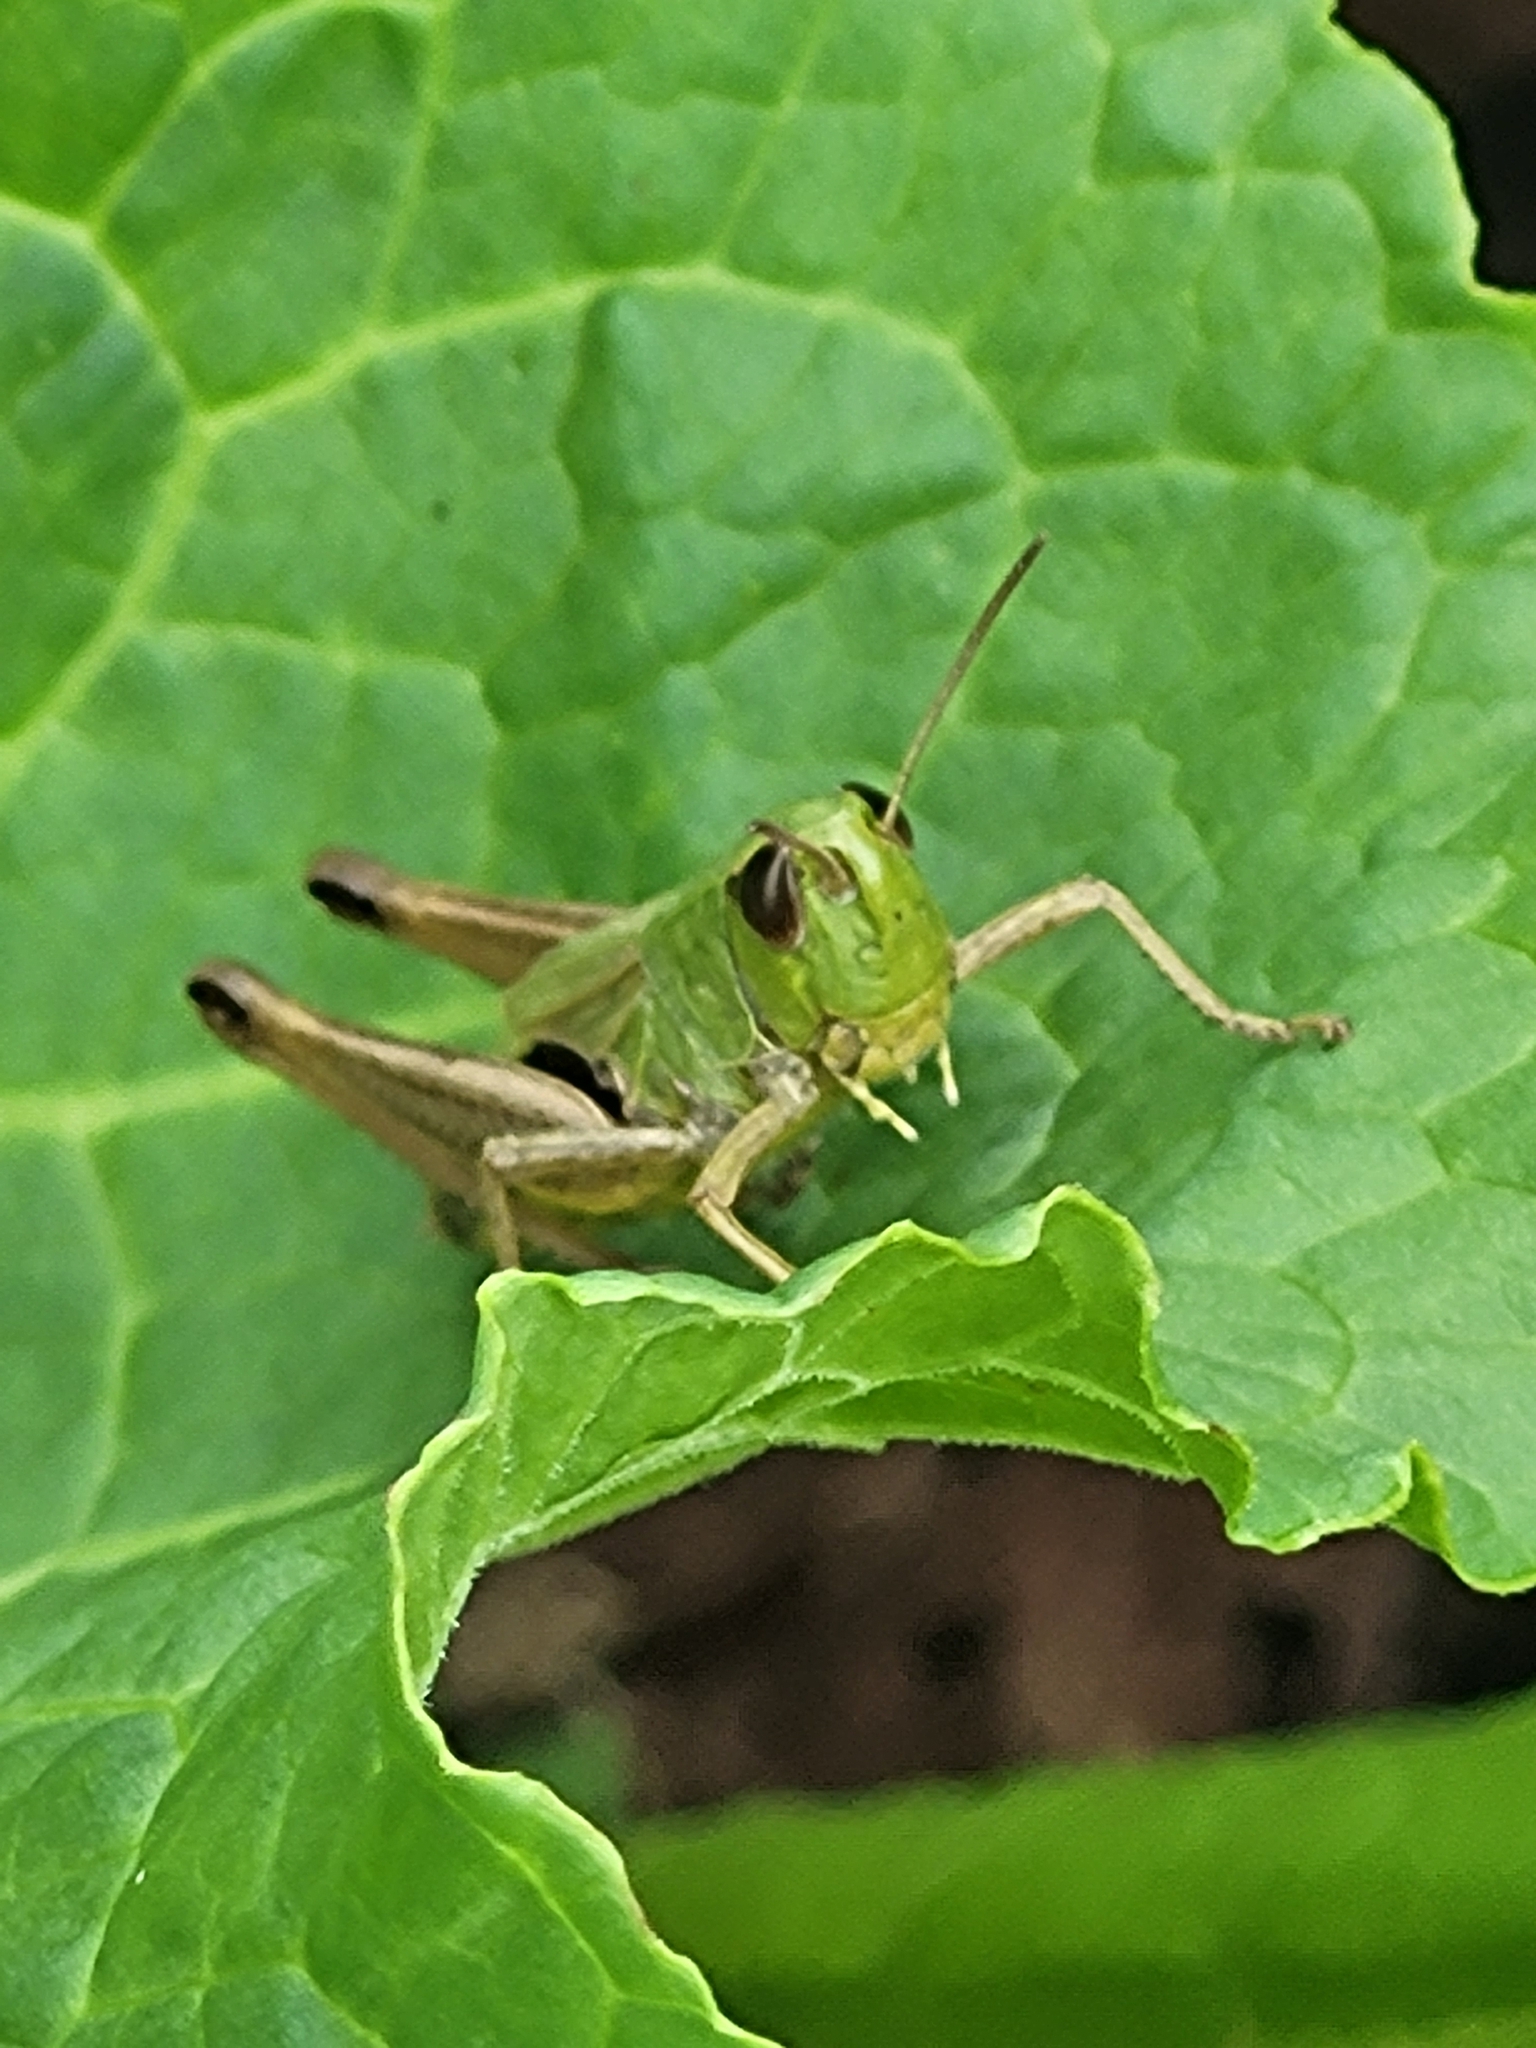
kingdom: Animalia
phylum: Arthropoda
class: Insecta
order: Orthoptera
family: Acrididae
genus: Pseudochorthippus
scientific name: Pseudochorthippus parallelus
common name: Meadow grasshopper
